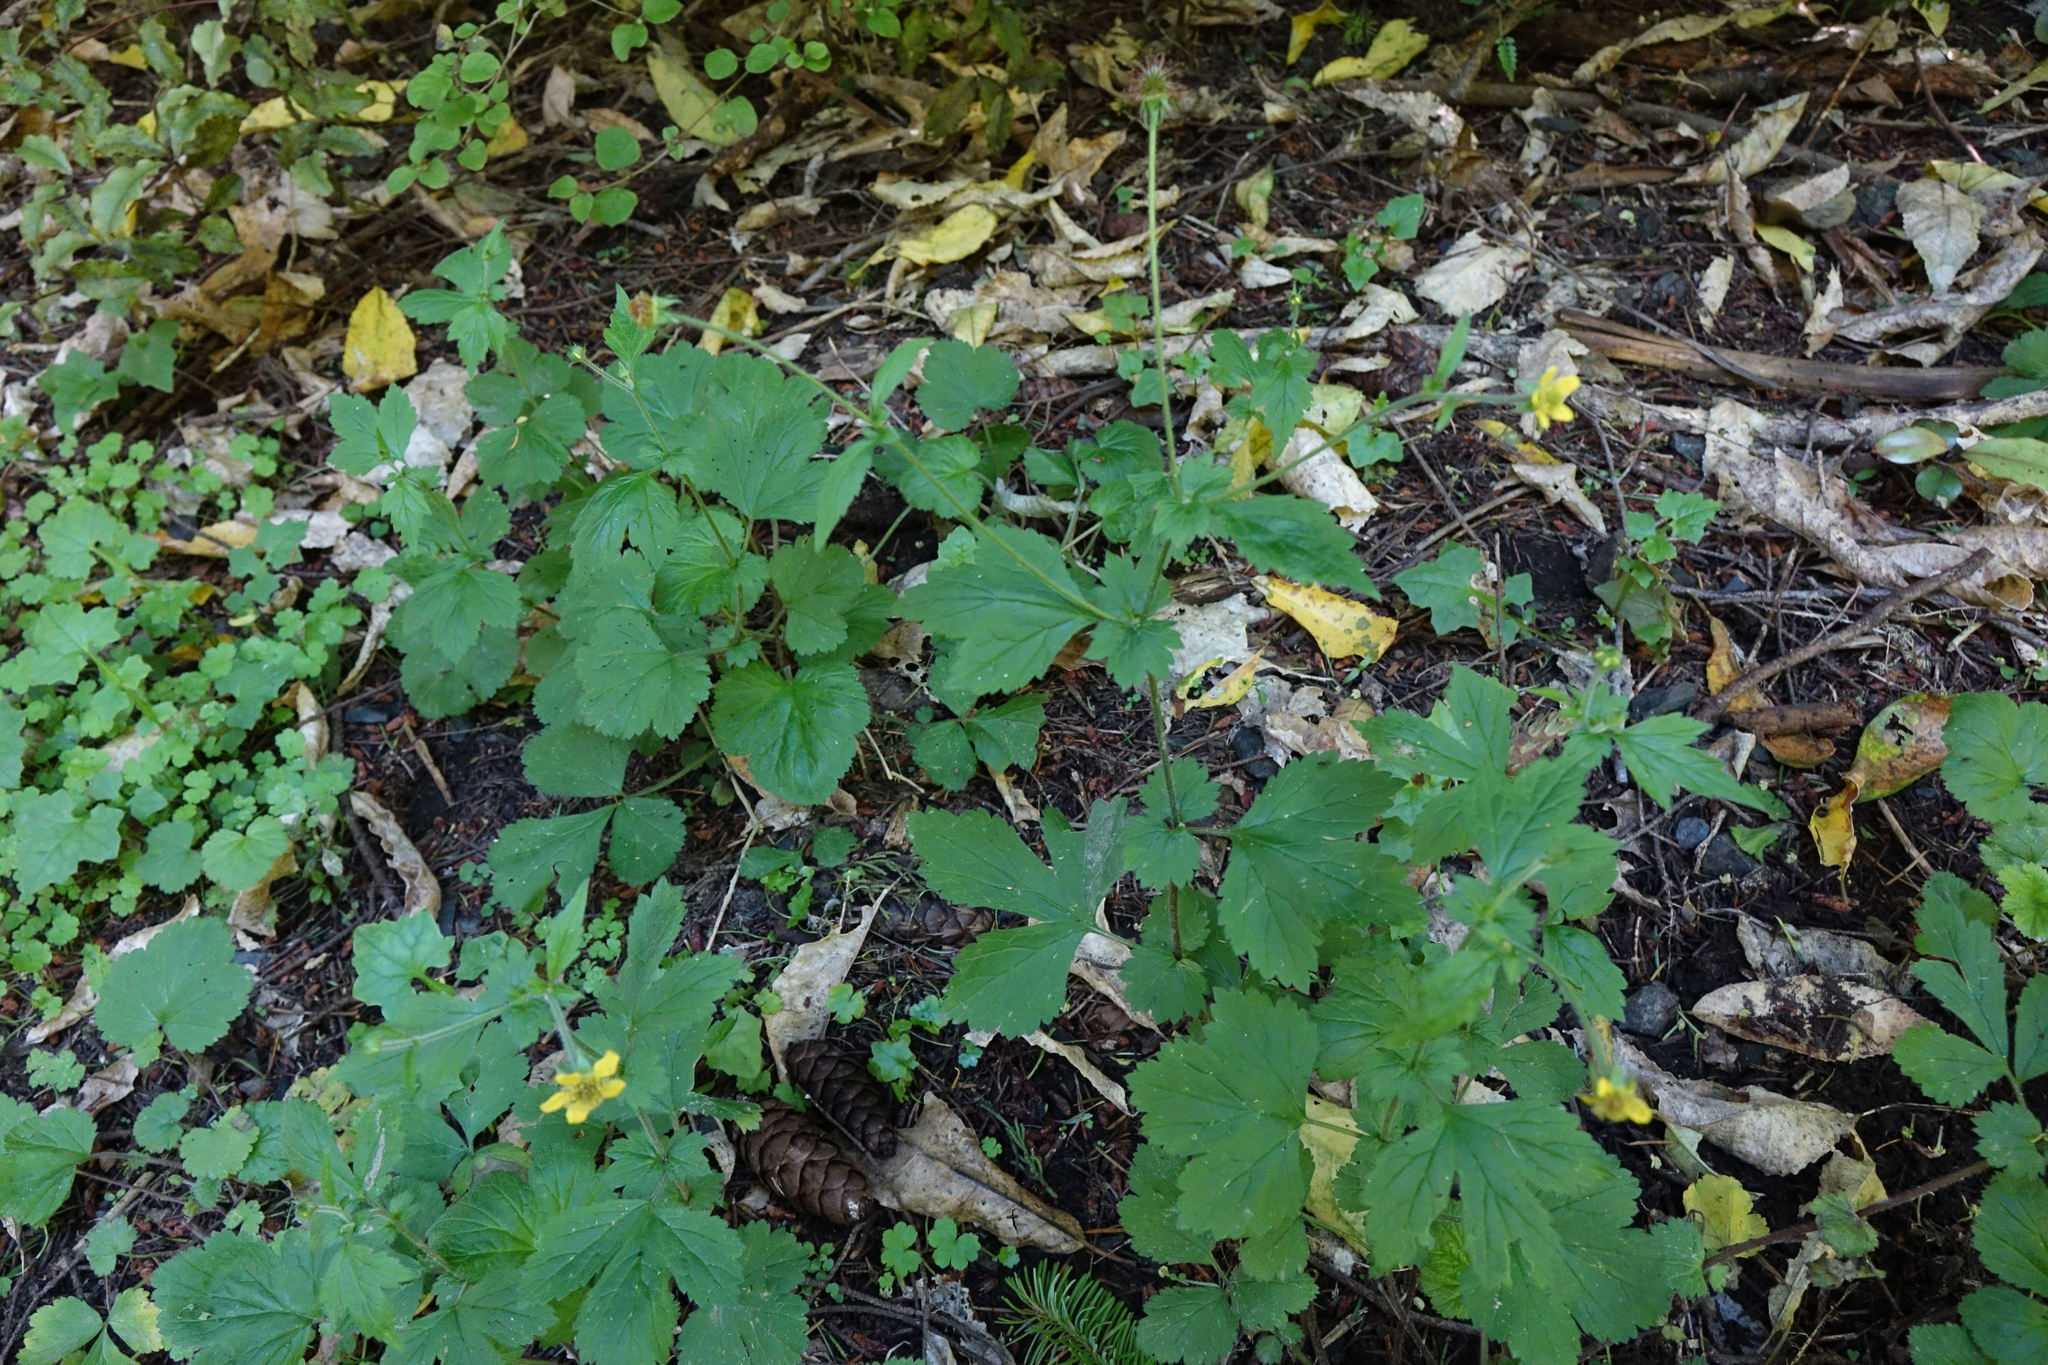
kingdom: Plantae
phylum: Tracheophyta
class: Magnoliopsida
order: Rosales
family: Rosaceae
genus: Geum
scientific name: Geum urbanum
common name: Wood avens
